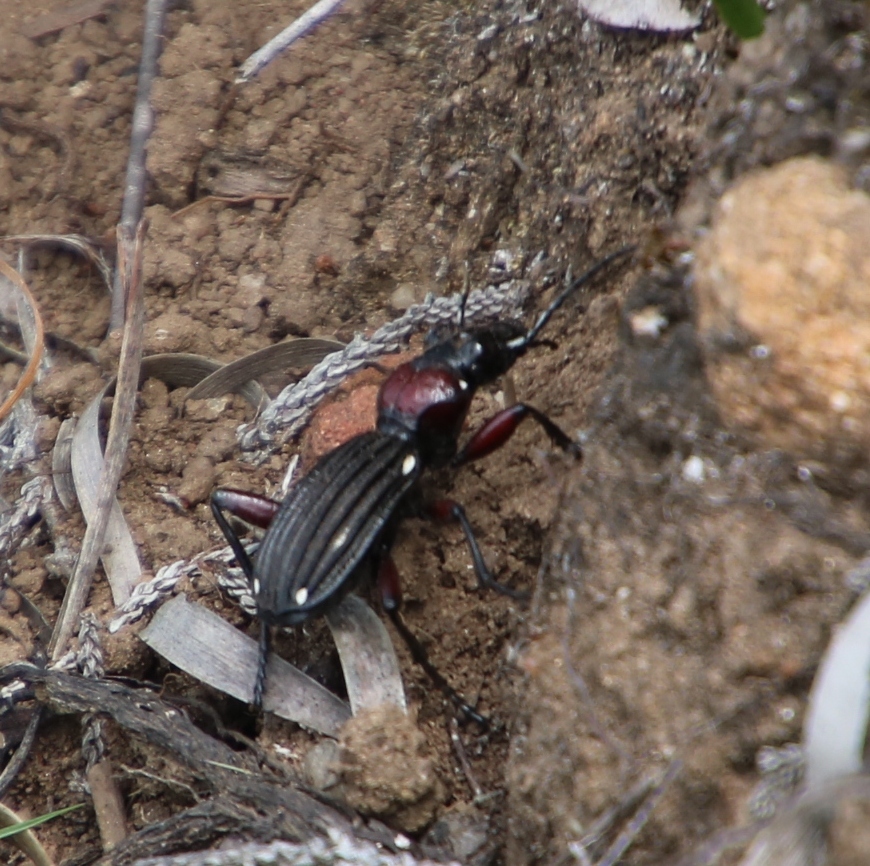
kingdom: Animalia
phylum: Arthropoda
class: Insecta
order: Coleoptera
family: Carabidae
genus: Anthia
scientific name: Anthia decemguttata
